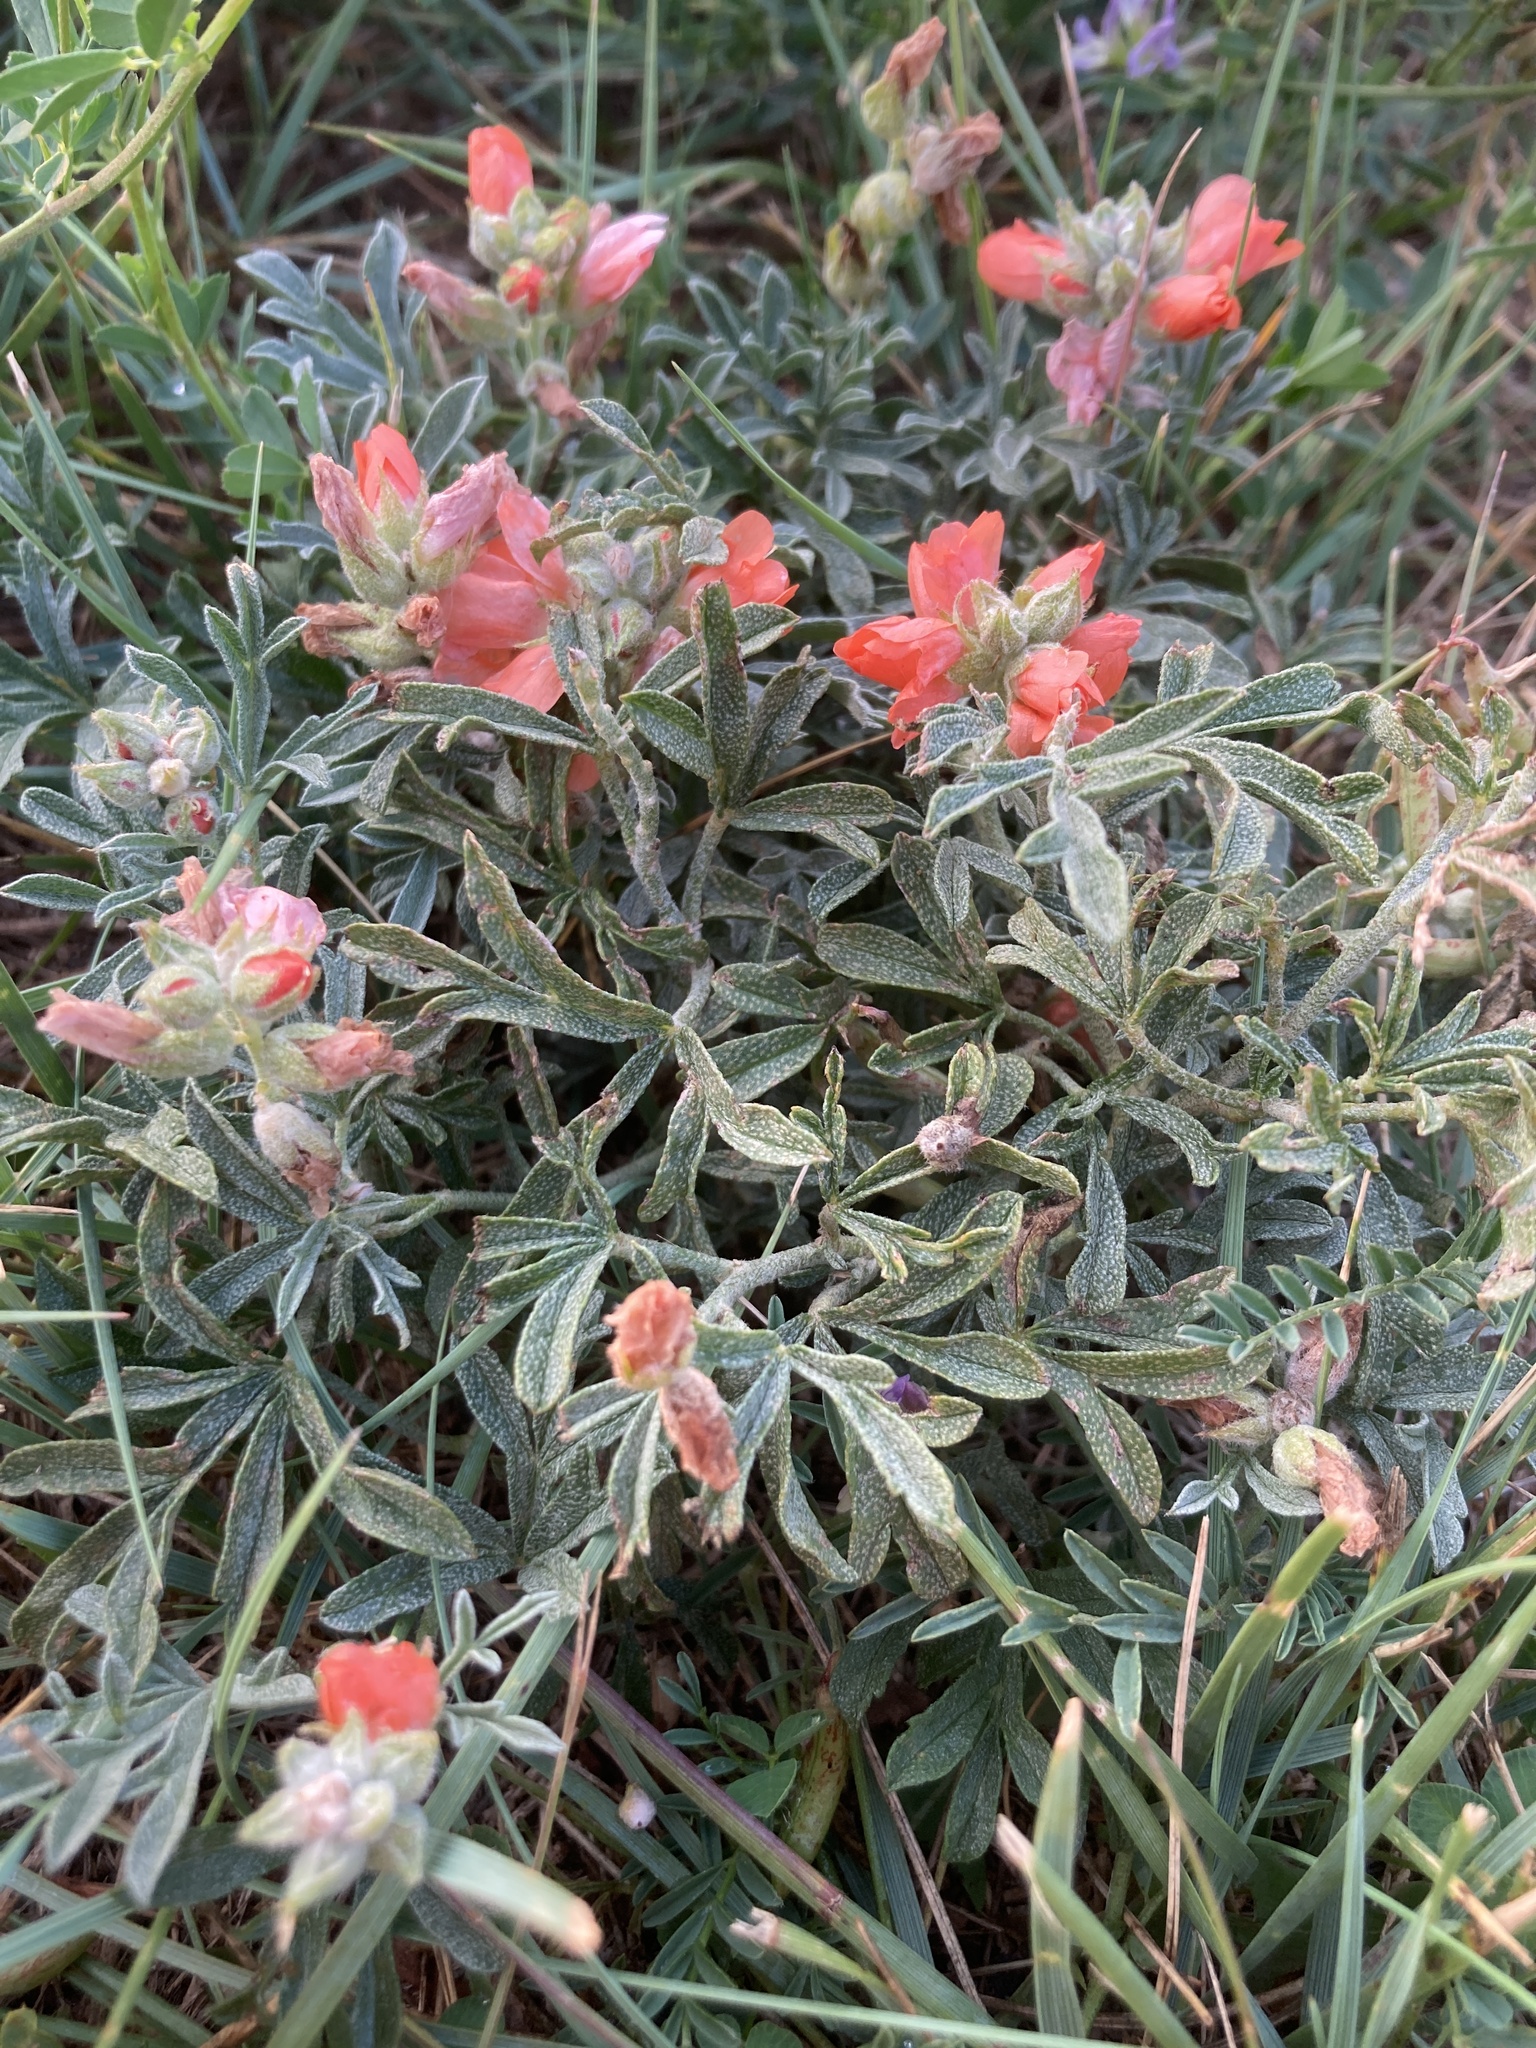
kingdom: Plantae
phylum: Tracheophyta
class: Magnoliopsida
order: Malvales
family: Malvaceae
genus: Sphaeralcea
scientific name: Sphaeralcea coccinea
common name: Moss-rose
